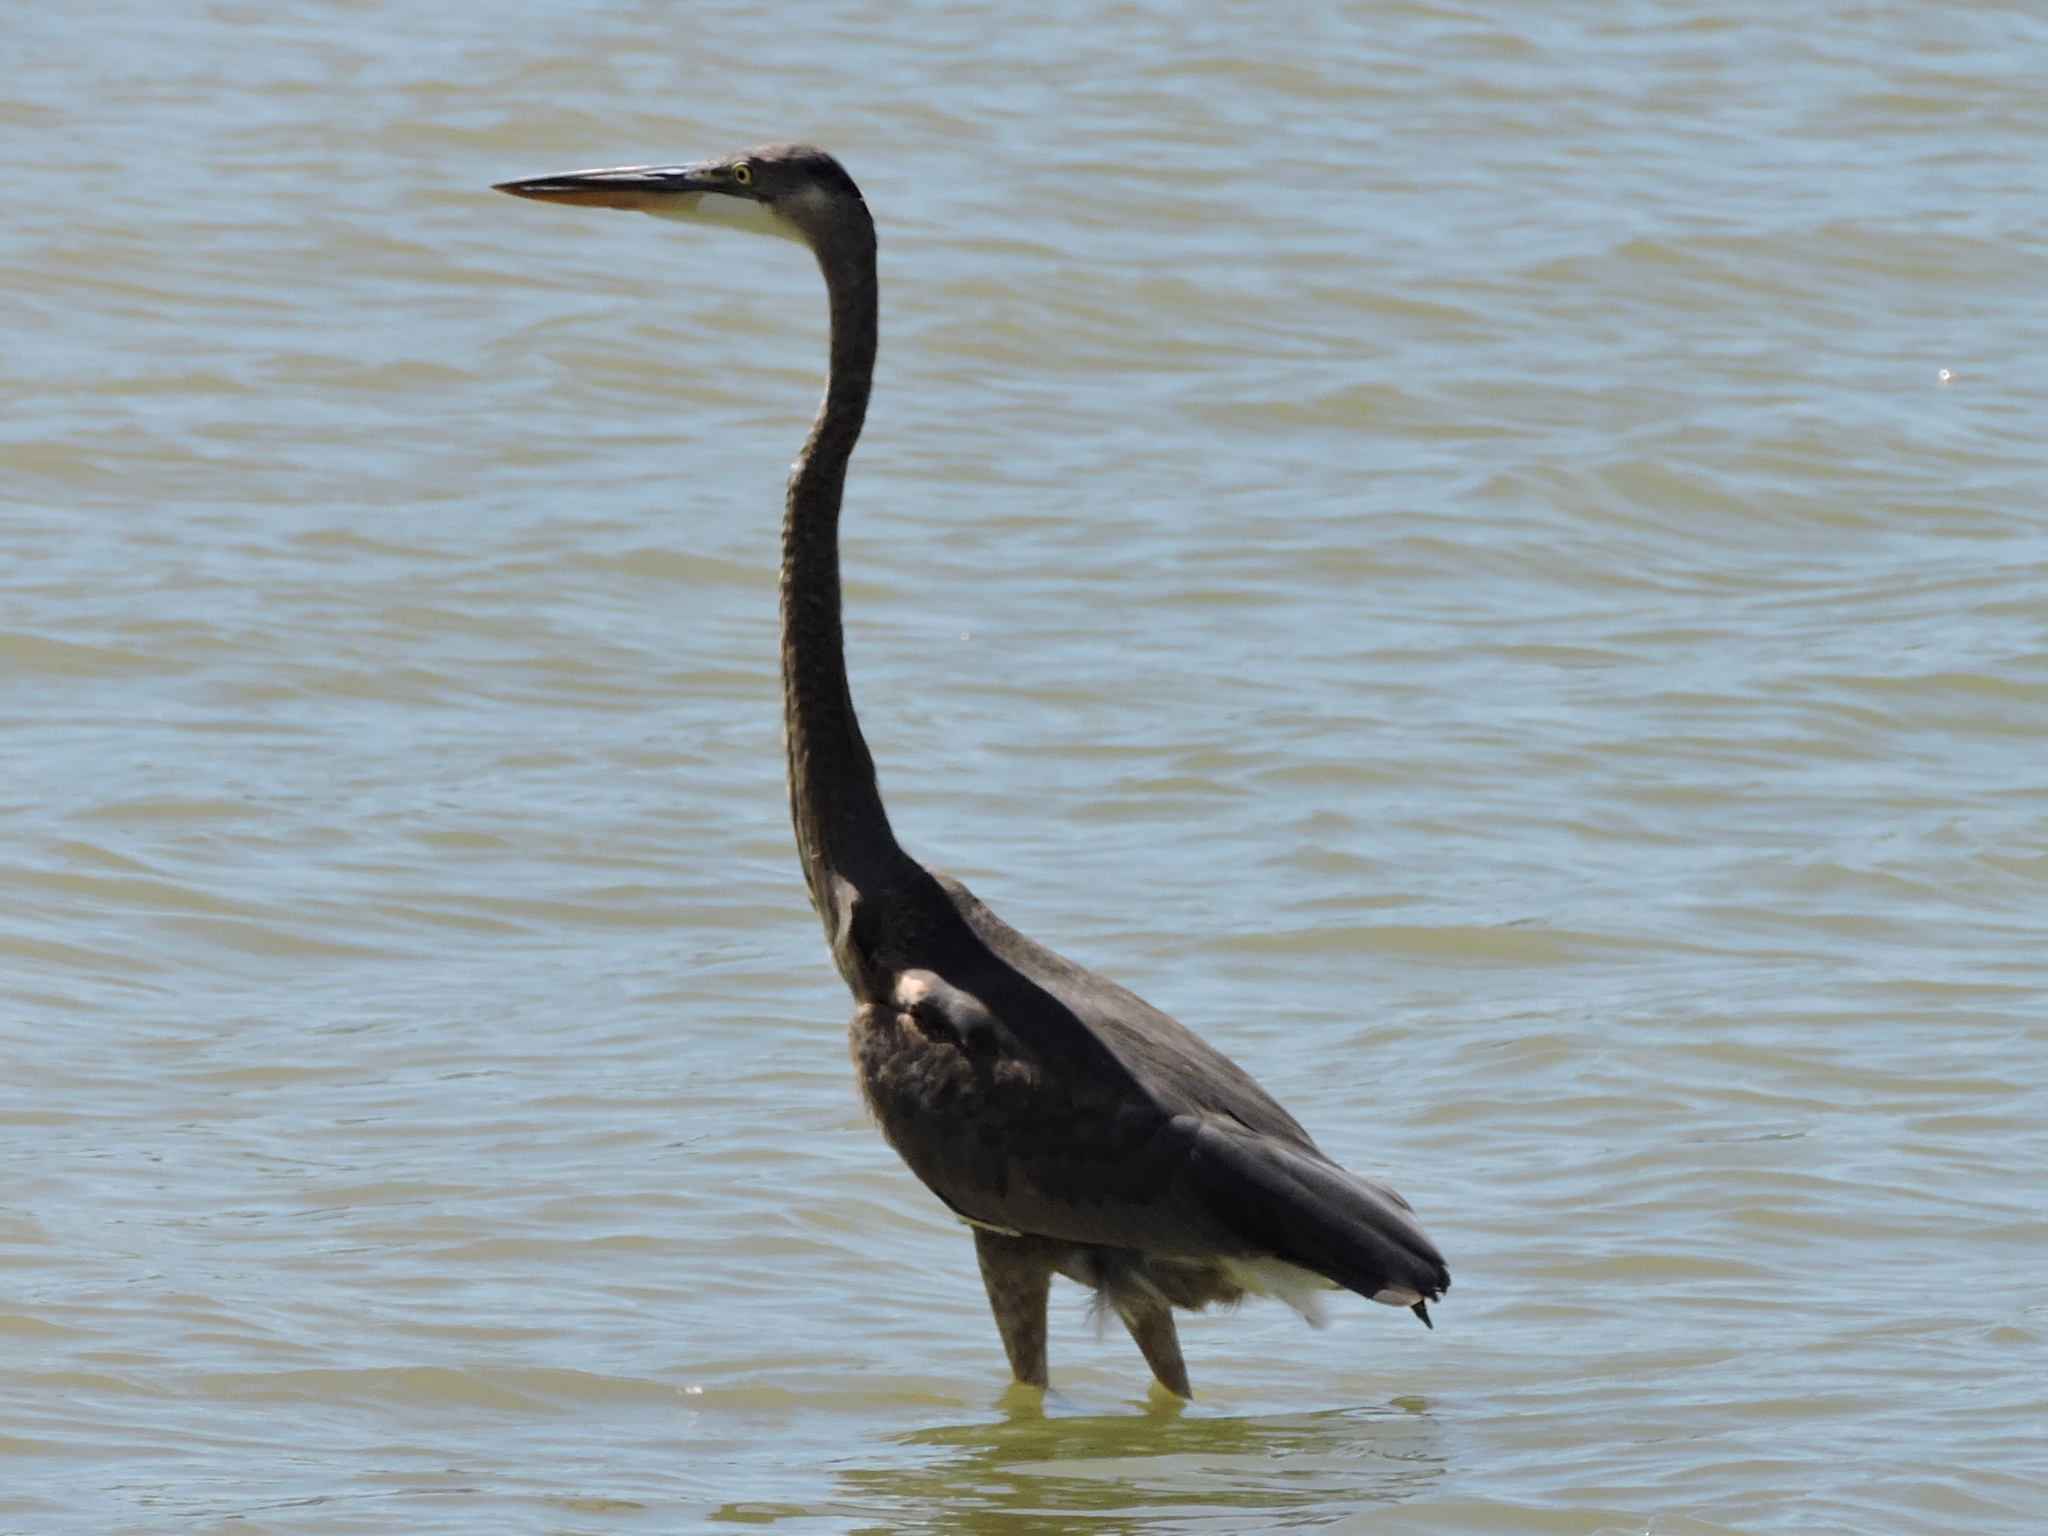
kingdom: Animalia
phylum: Chordata
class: Aves
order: Pelecaniformes
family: Ardeidae
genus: Ardea
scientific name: Ardea herodias
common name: Great blue heron
